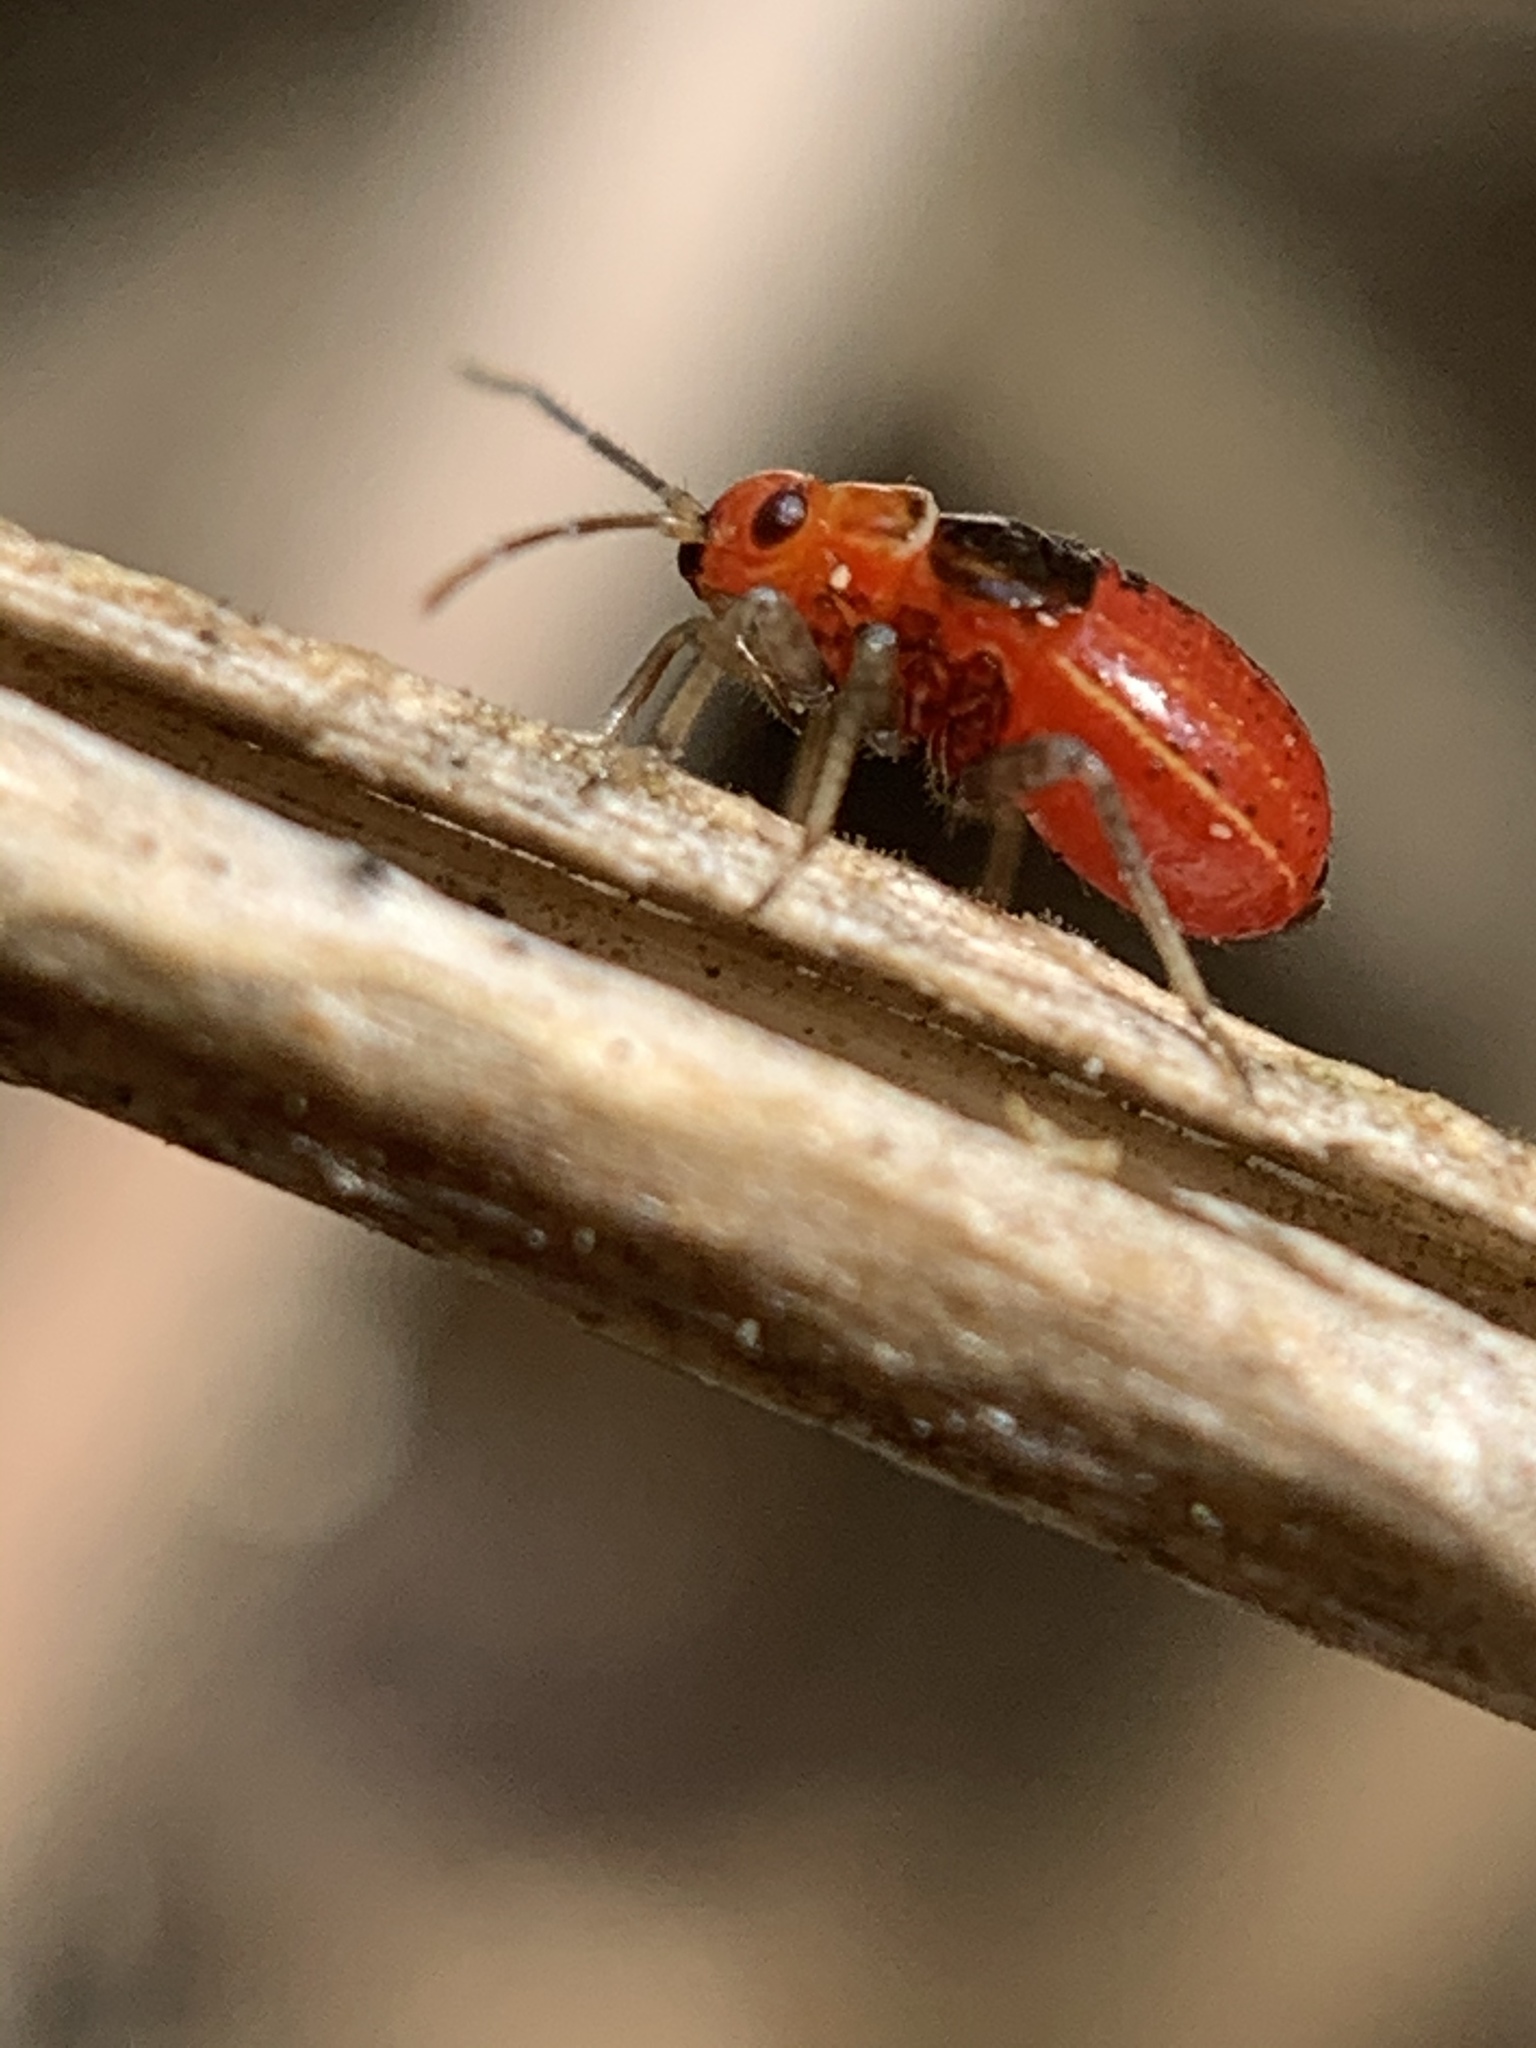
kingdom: Animalia
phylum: Arthropoda
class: Insecta
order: Hemiptera
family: Miridae
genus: Poecilocapsus
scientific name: Poecilocapsus lineatus
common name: Four-lined plant bug
